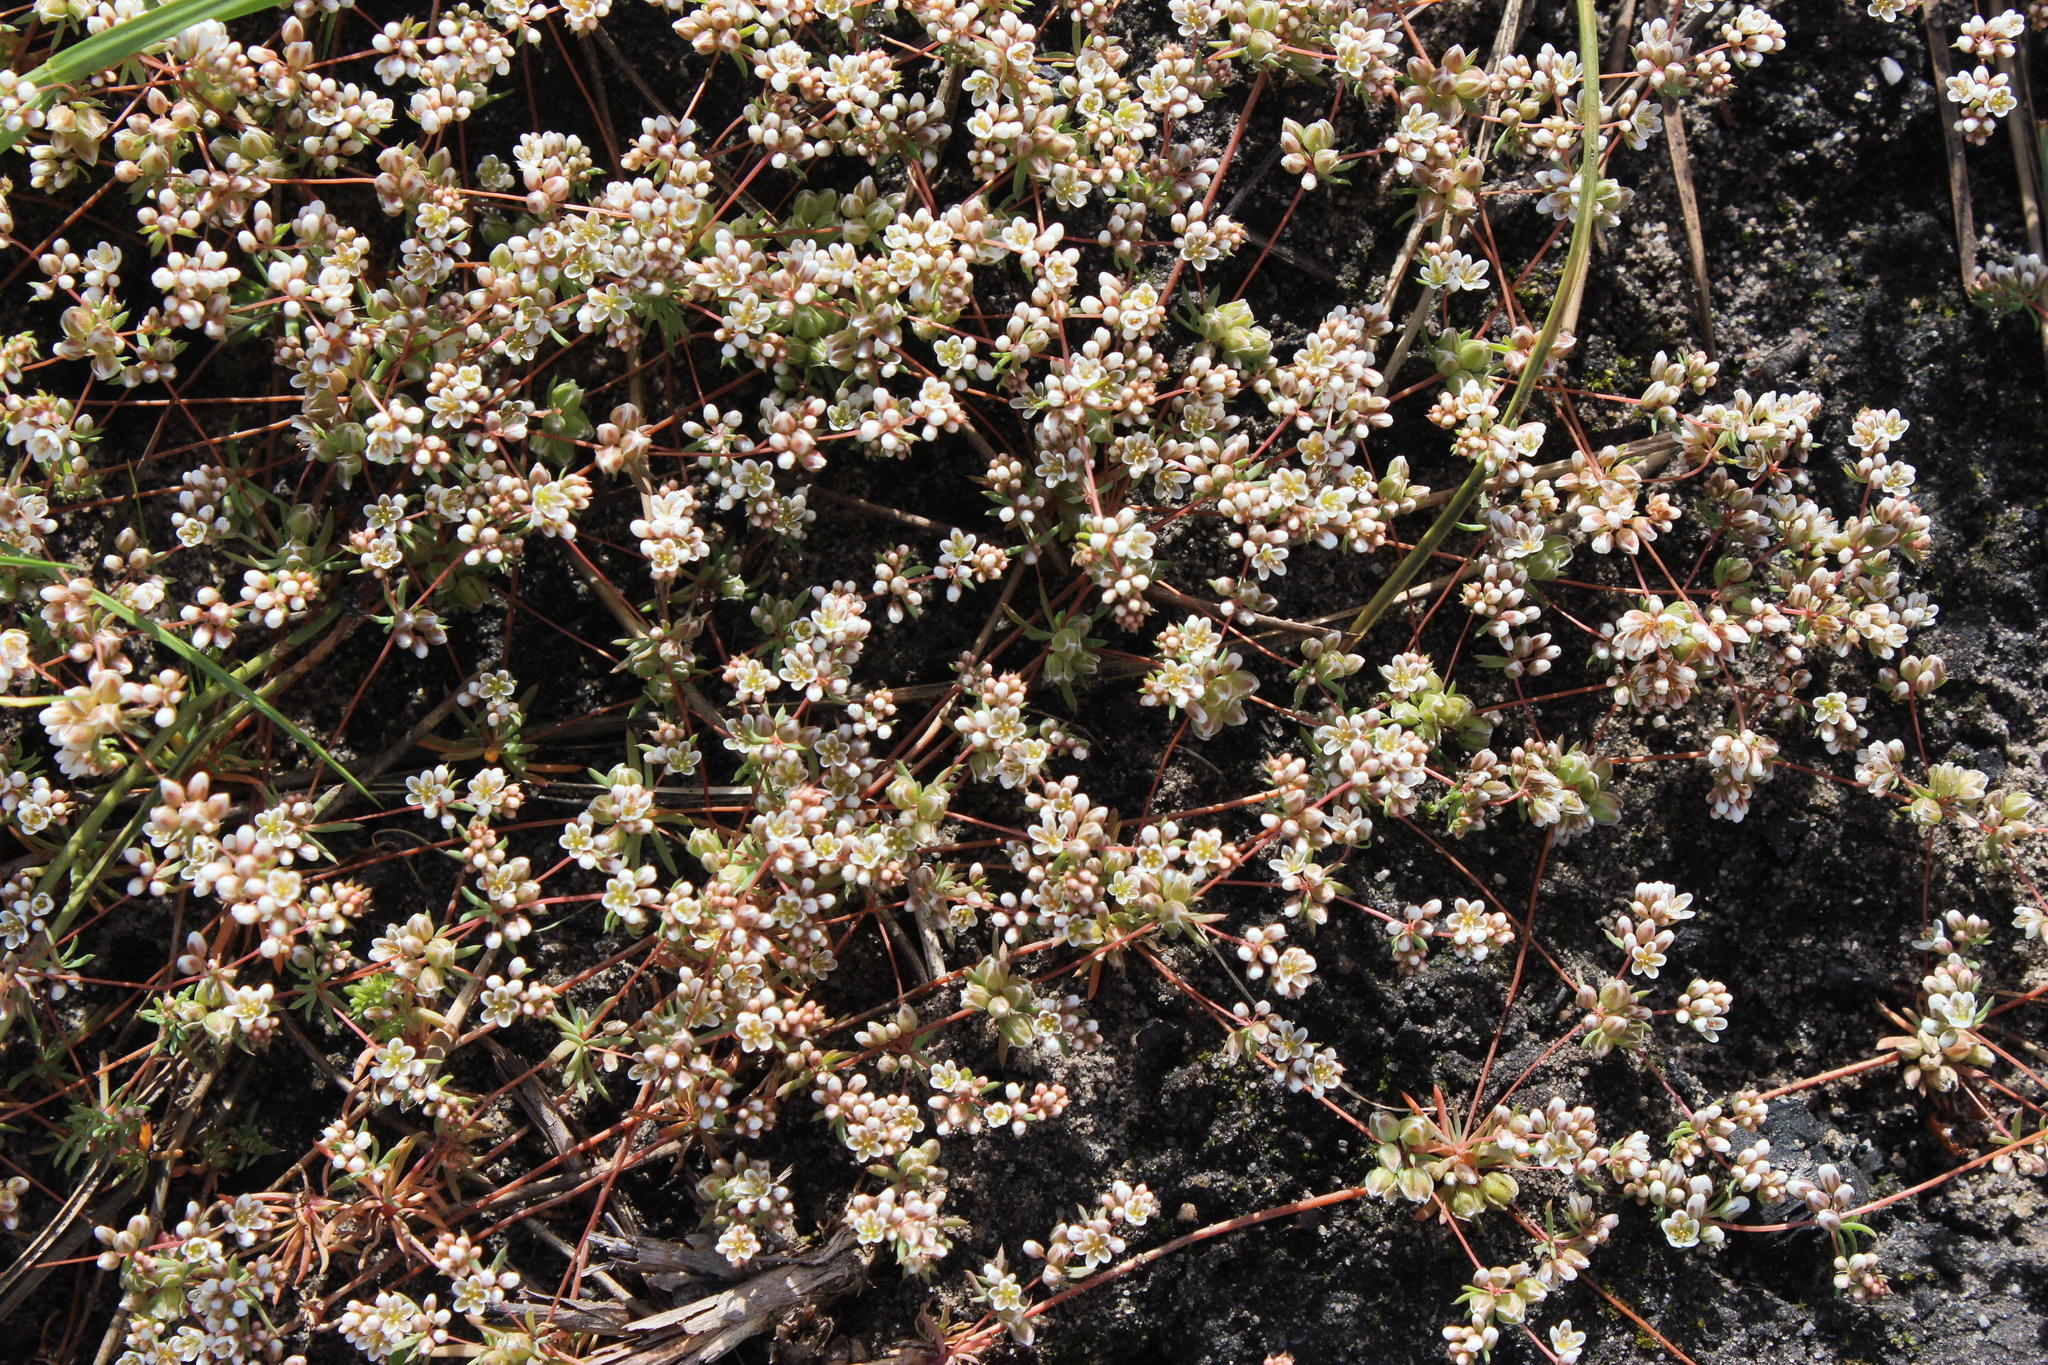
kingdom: Plantae
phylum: Tracheophyta
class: Magnoliopsida
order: Caryophyllales
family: Molluginaceae
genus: Adenogramma
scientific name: Adenogramma glomerata
